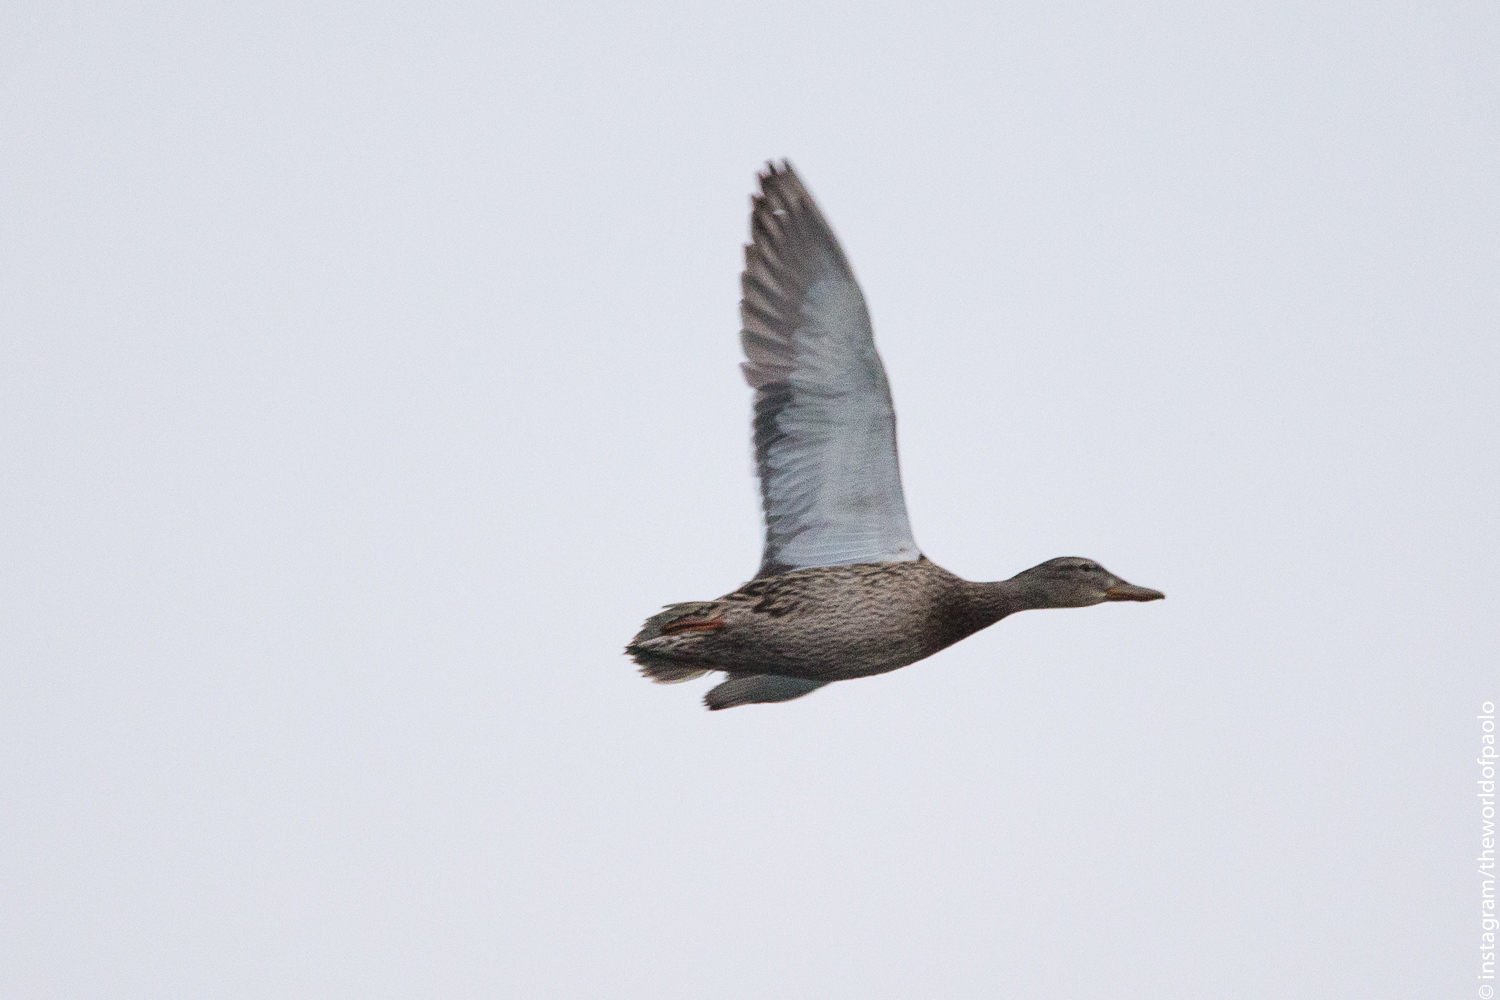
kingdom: Animalia
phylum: Chordata
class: Aves
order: Anseriformes
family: Anatidae
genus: Anas
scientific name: Anas platyrhynchos
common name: Mallard
